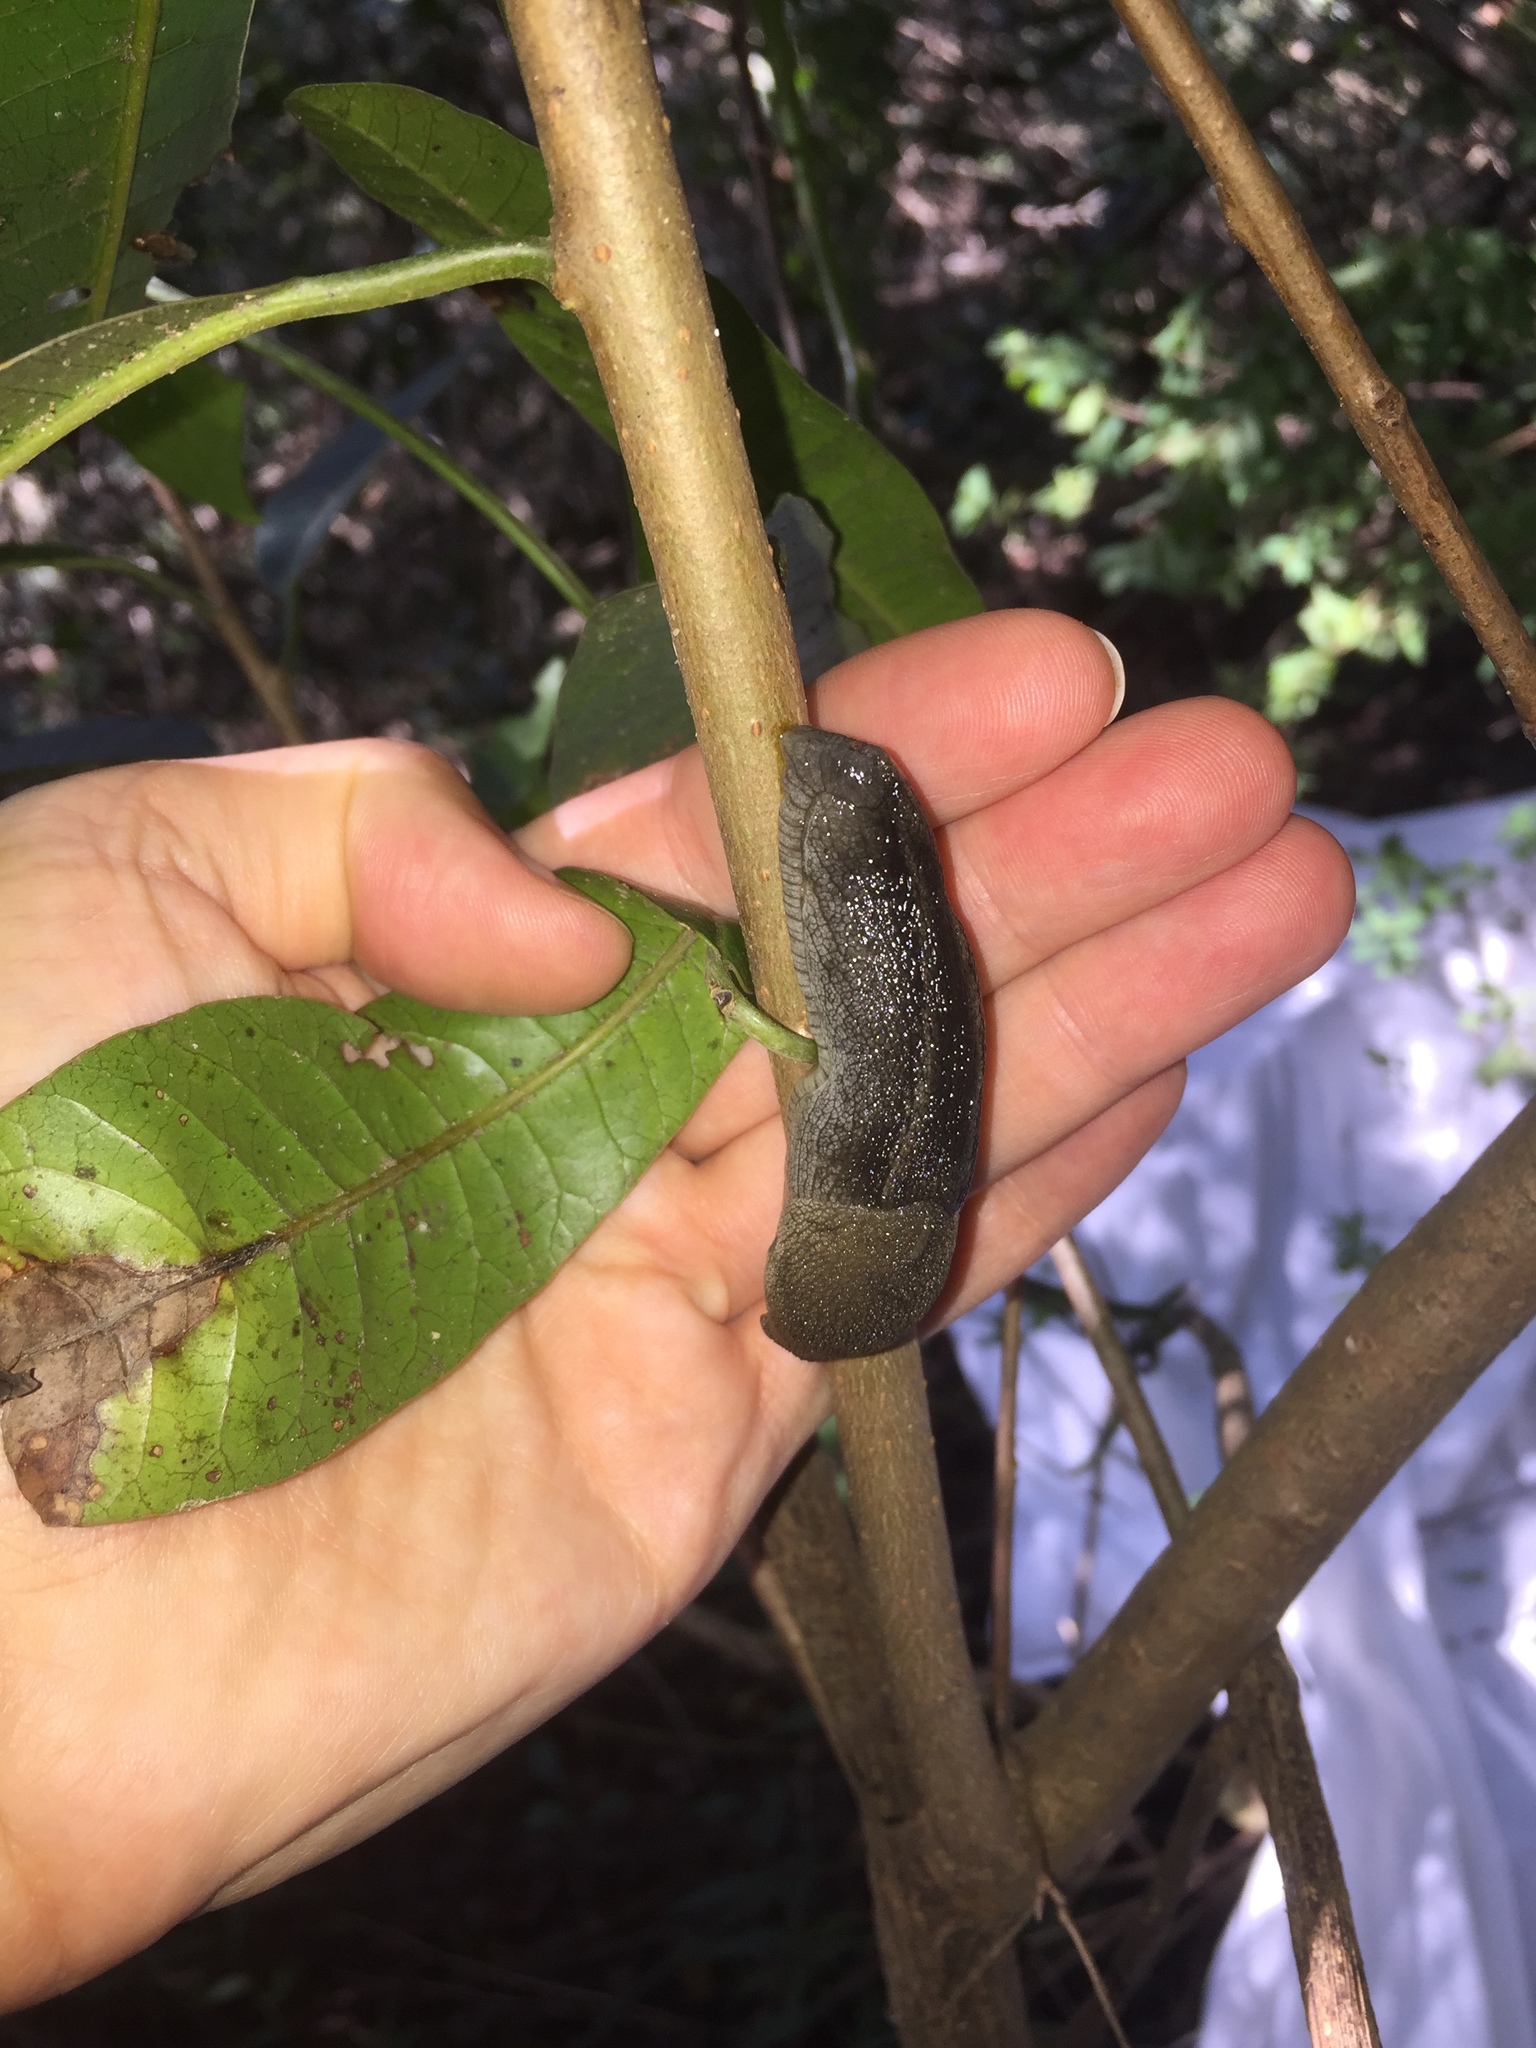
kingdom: Animalia
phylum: Mollusca
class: Gastropoda
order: Stylommatophora
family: Urocyclidae
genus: Urocyclus
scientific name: Urocyclus kirkii
